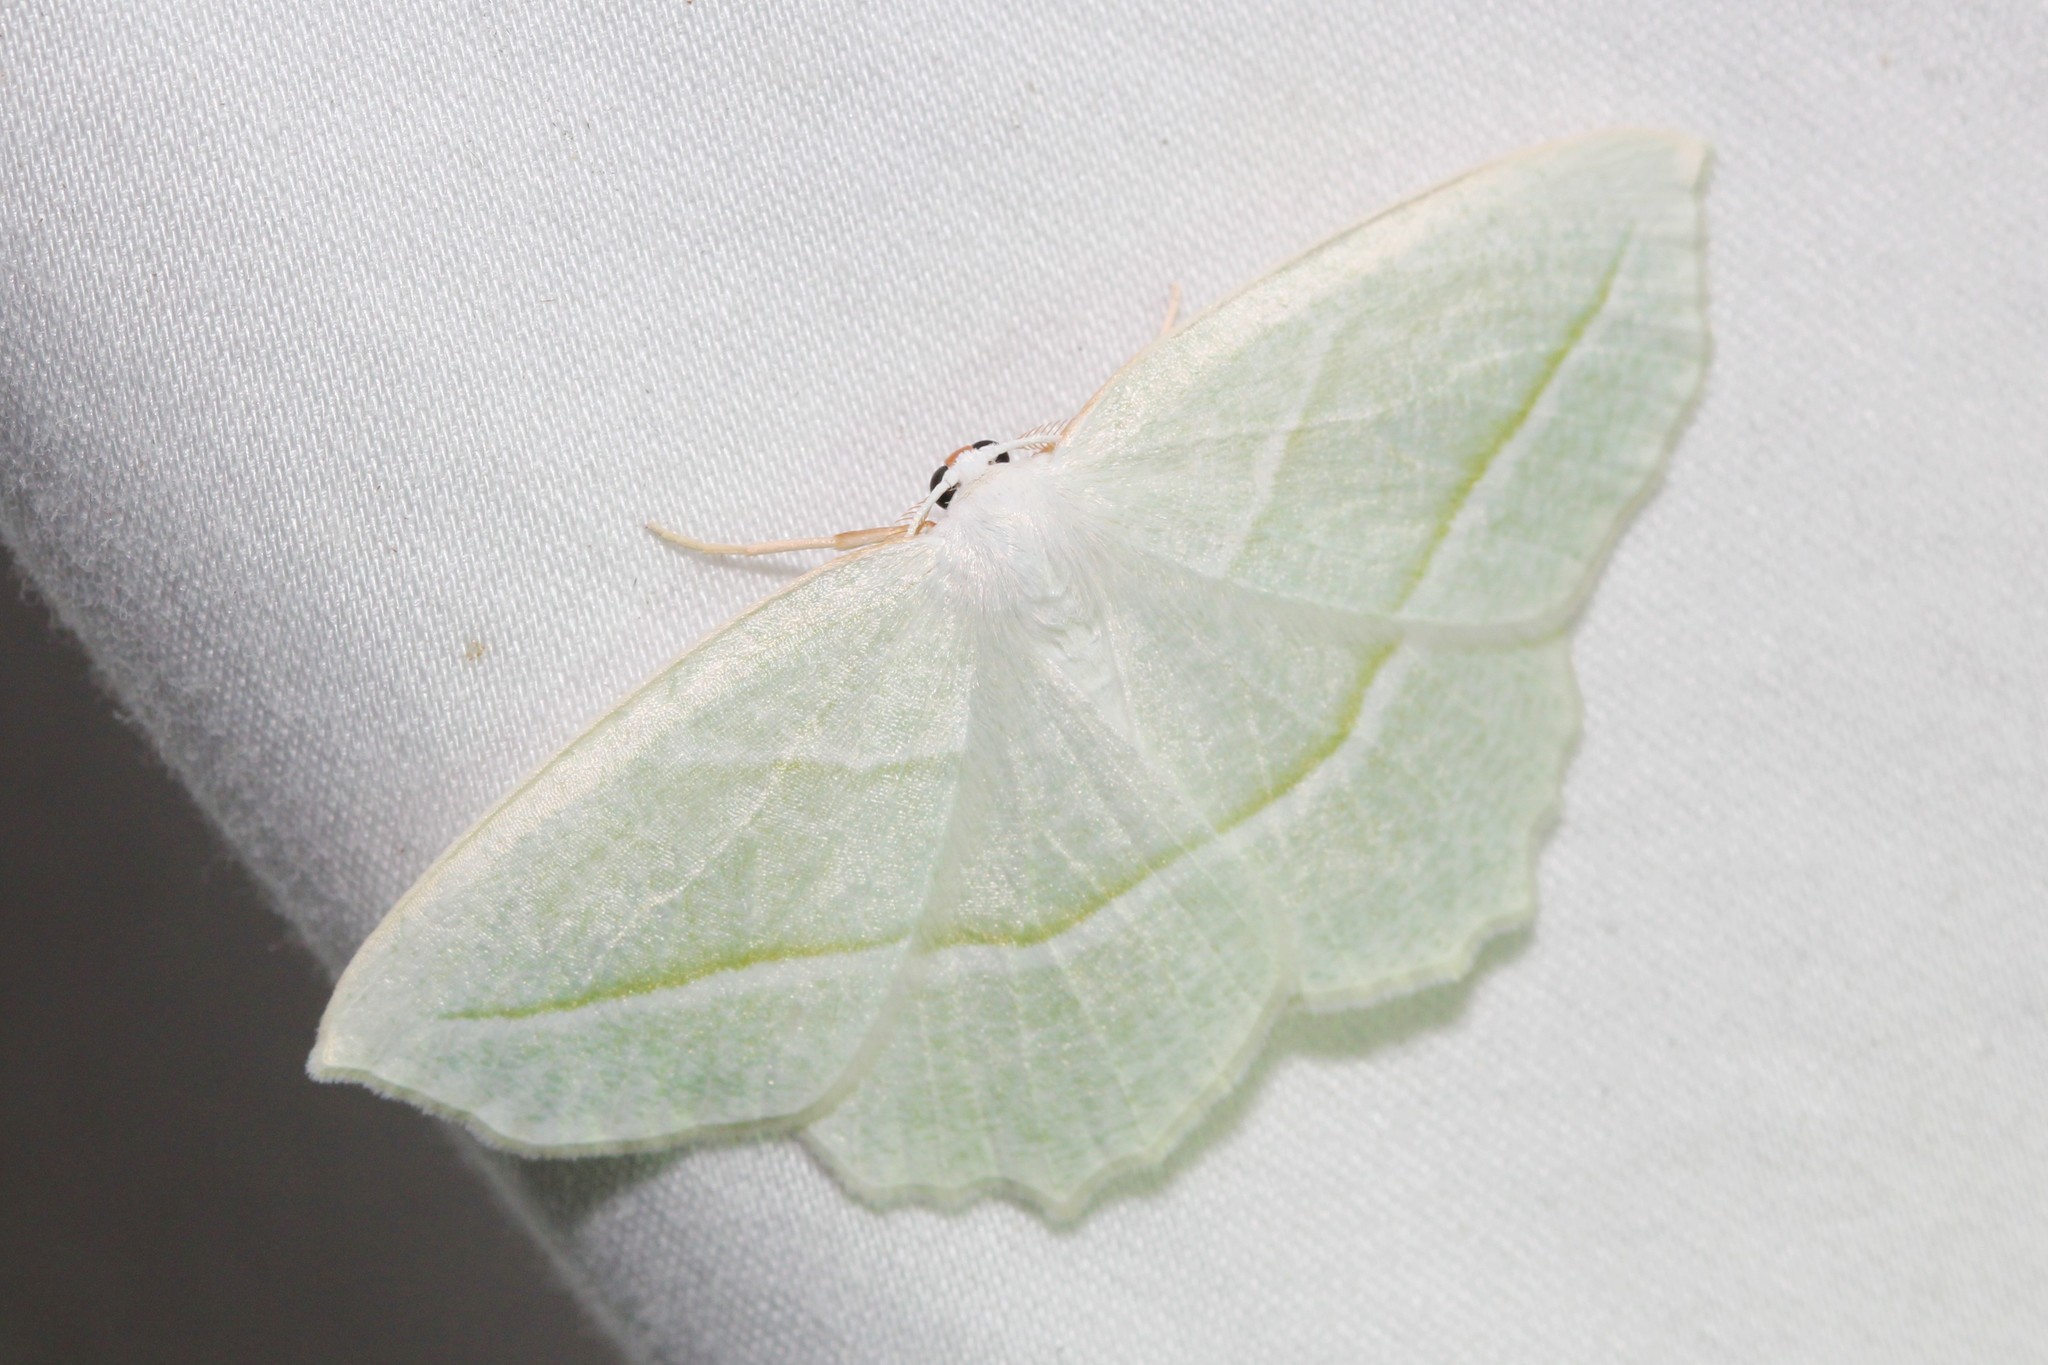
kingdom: Animalia
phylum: Arthropoda
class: Insecta
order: Lepidoptera
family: Geometridae
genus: Campaea
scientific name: Campaea perlata
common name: Fringed looper
